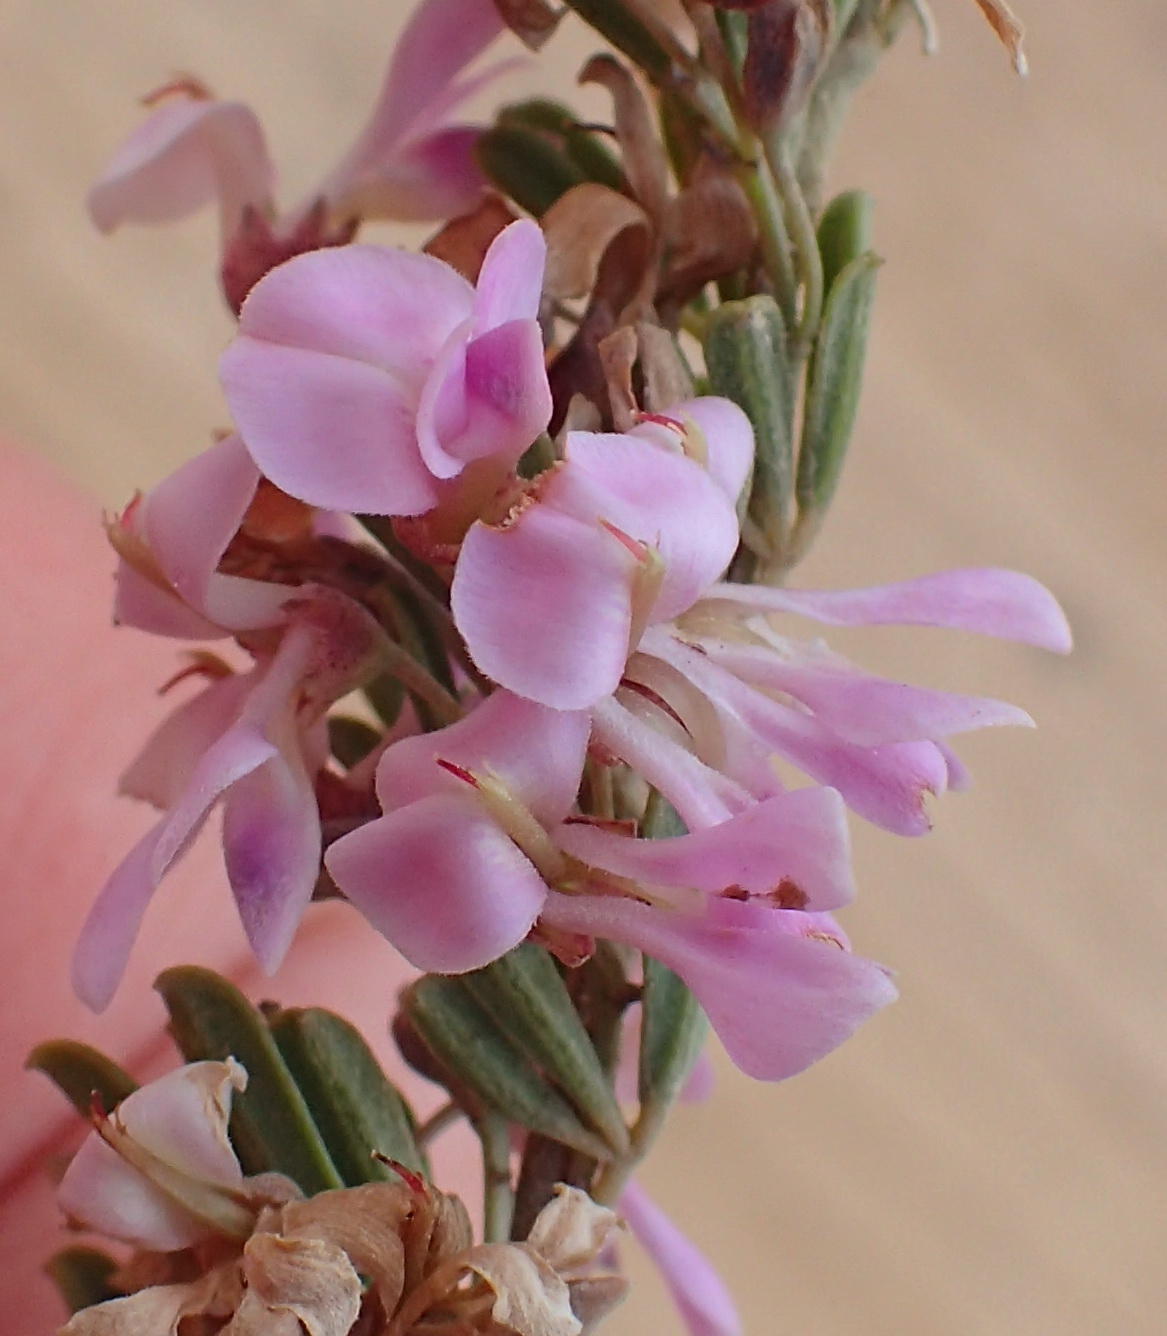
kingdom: Plantae
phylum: Tracheophyta
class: Magnoliopsida
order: Fabales
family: Fabaceae
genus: Indigofera
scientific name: Indigofera flabellata
